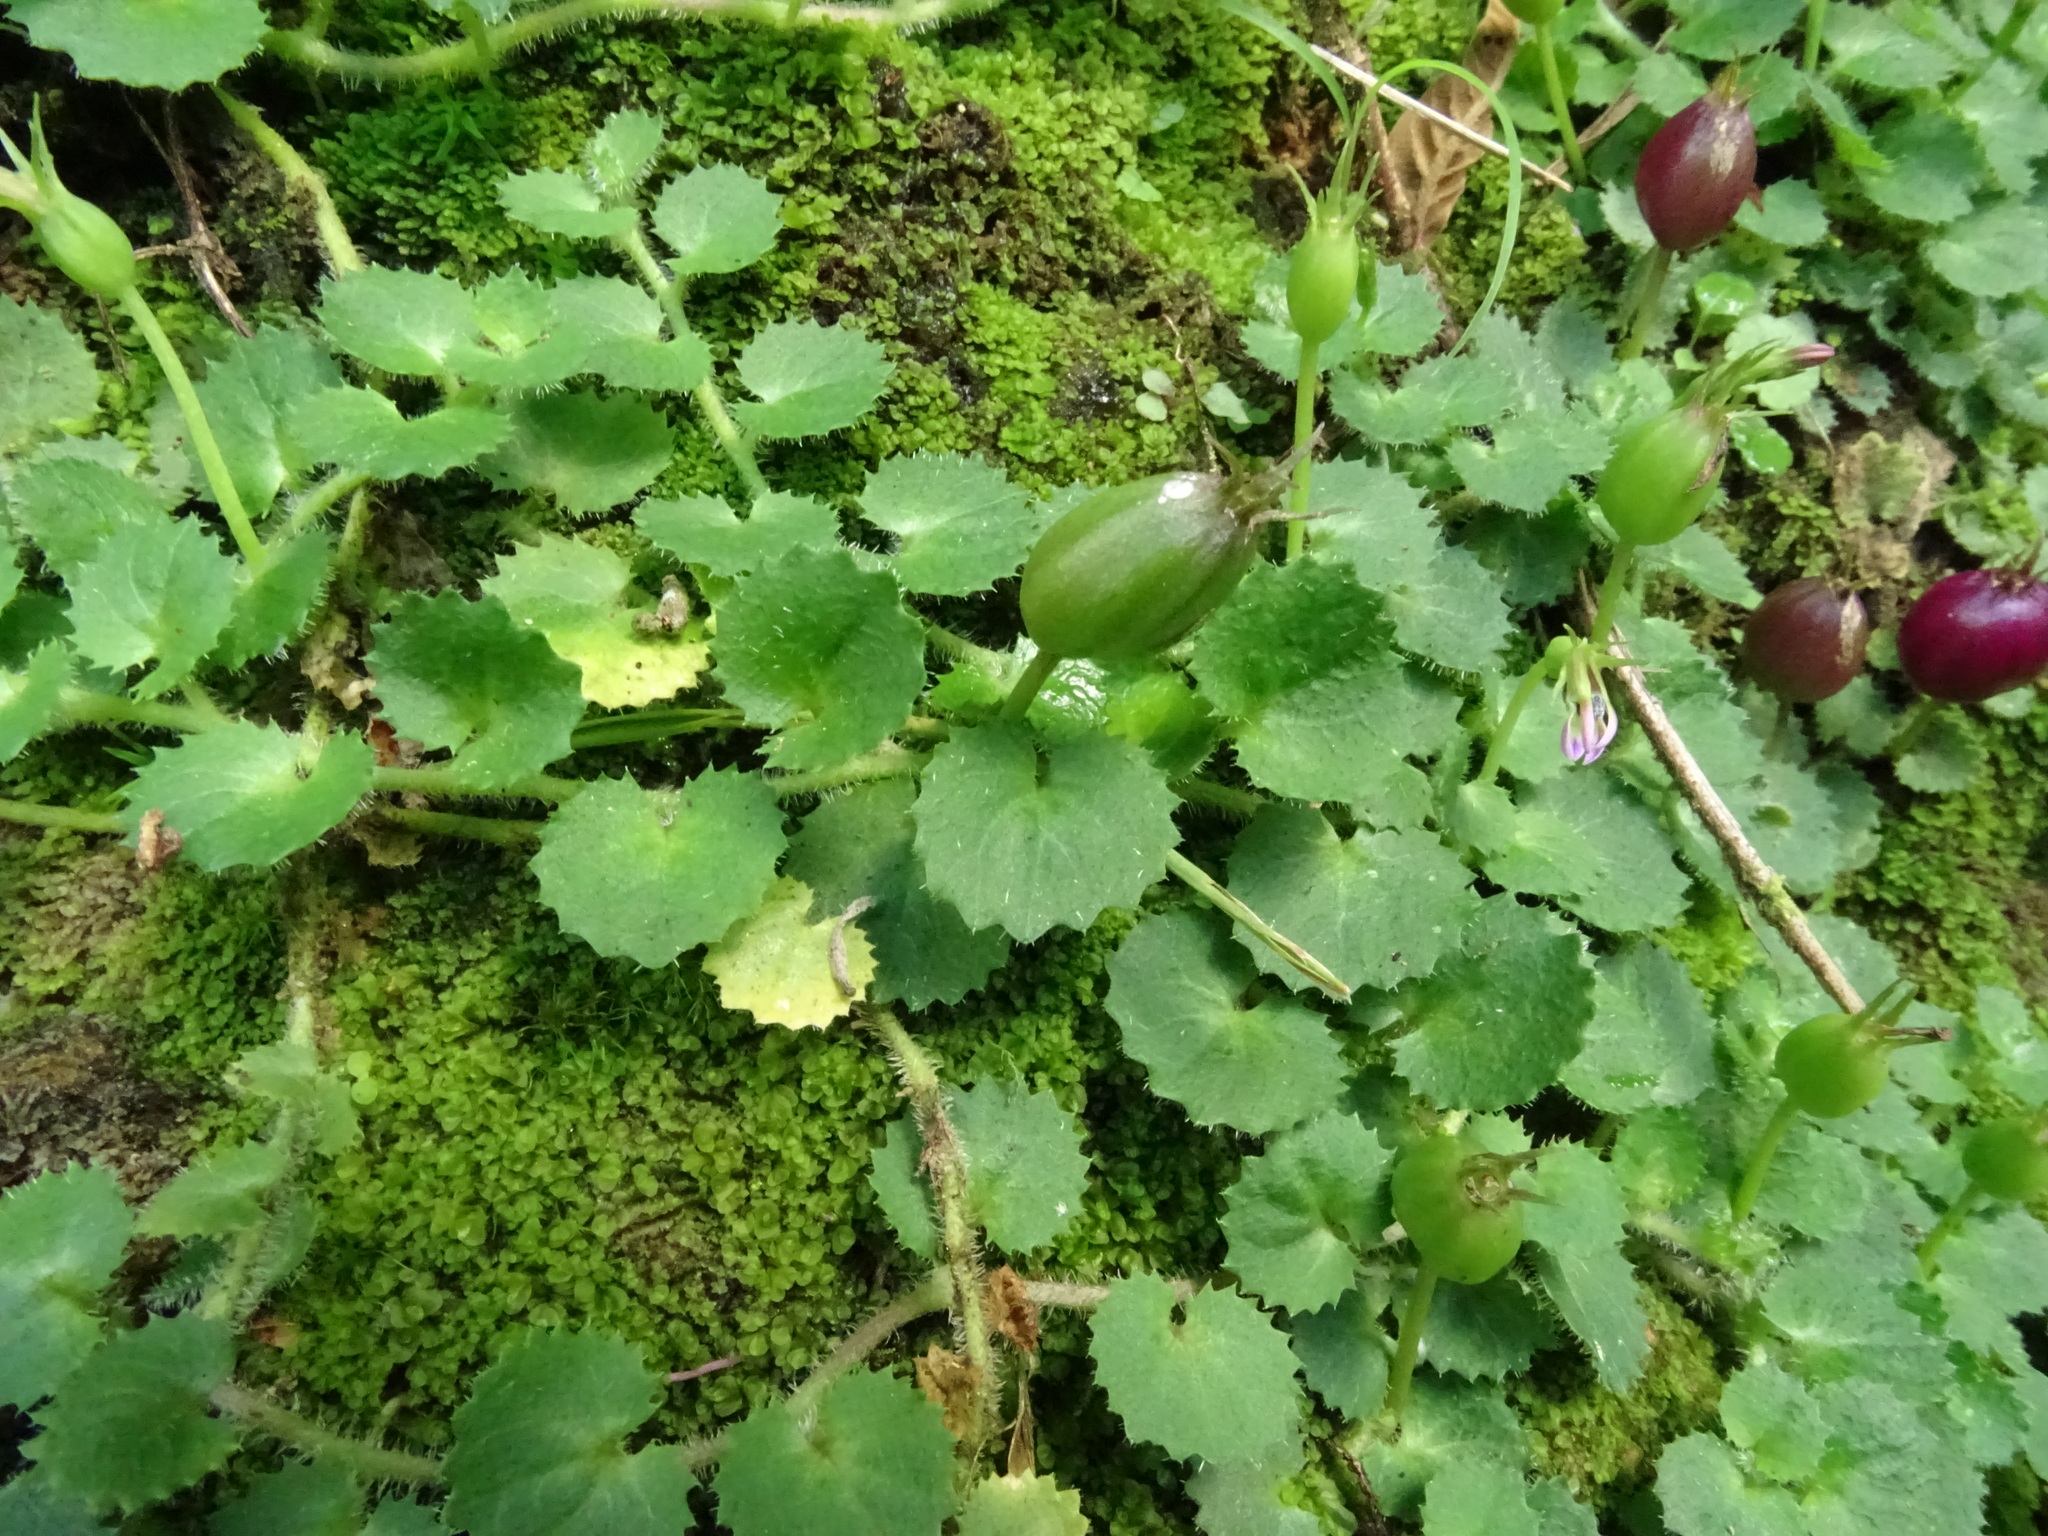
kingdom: Plantae
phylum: Tracheophyta
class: Magnoliopsida
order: Asterales
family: Campanulaceae
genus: Lobelia
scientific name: Lobelia nummularia
